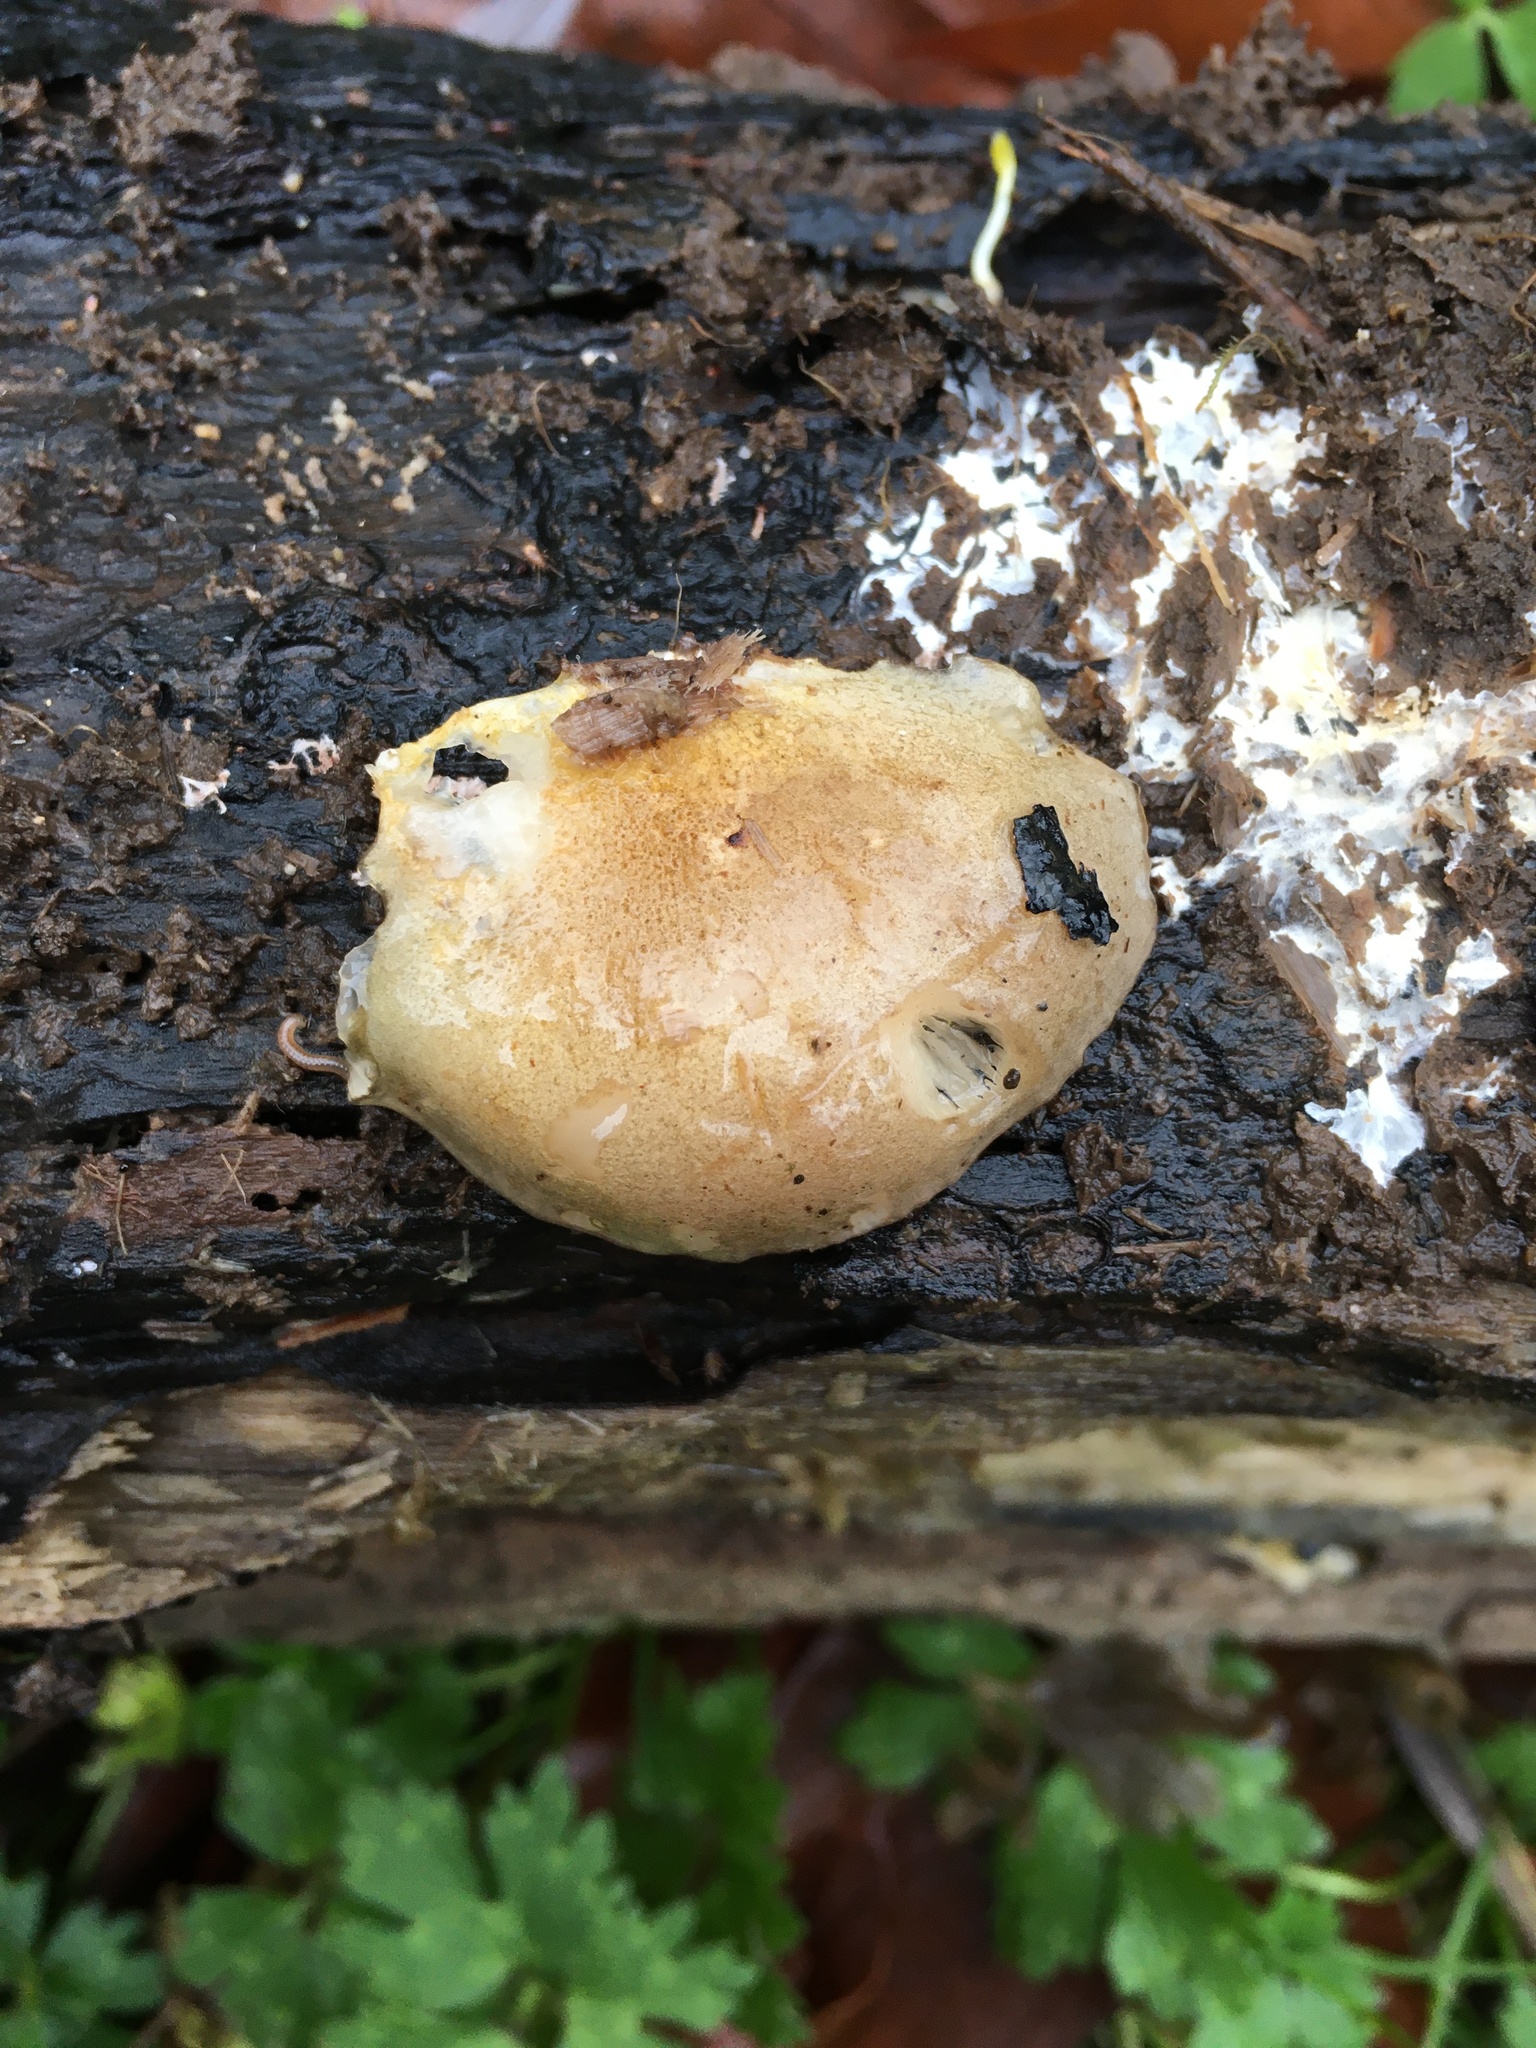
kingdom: Fungi
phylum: Basidiomycota
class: Agaricomycetes
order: Agaricales
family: Sarcomyxaceae
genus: Sarcomyxa
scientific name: Sarcomyxa serotina
